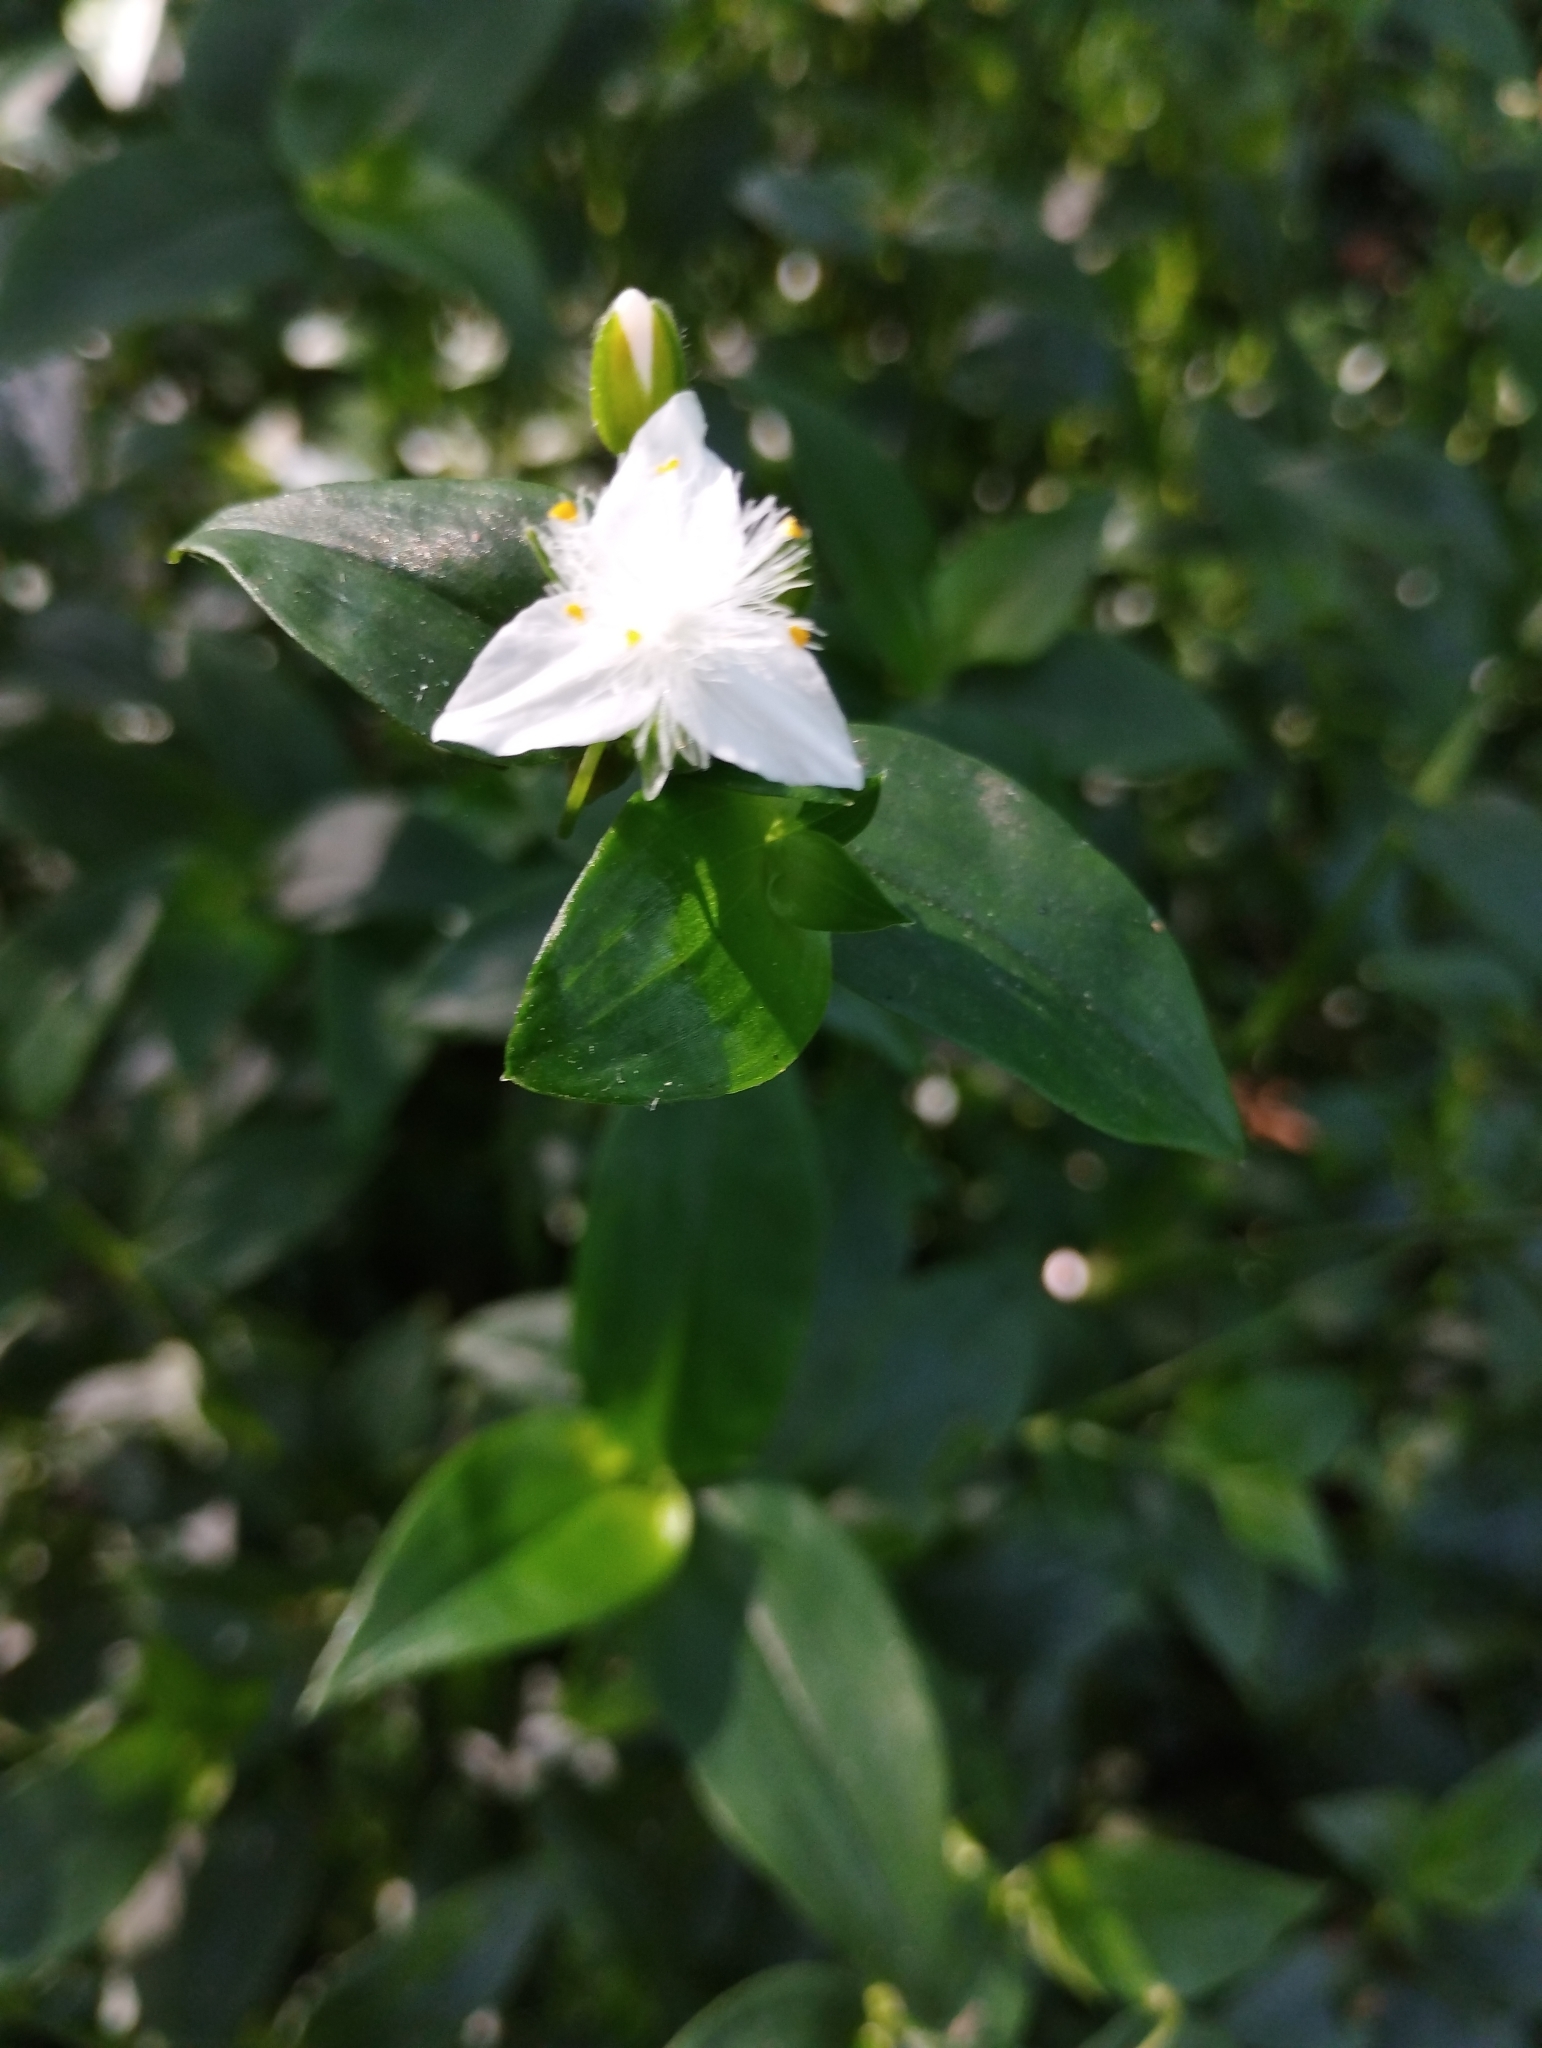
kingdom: Plantae
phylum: Tracheophyta
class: Liliopsida
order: Commelinales
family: Commelinaceae
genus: Tradescantia
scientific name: Tradescantia fluminensis
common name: Wandering-jew
